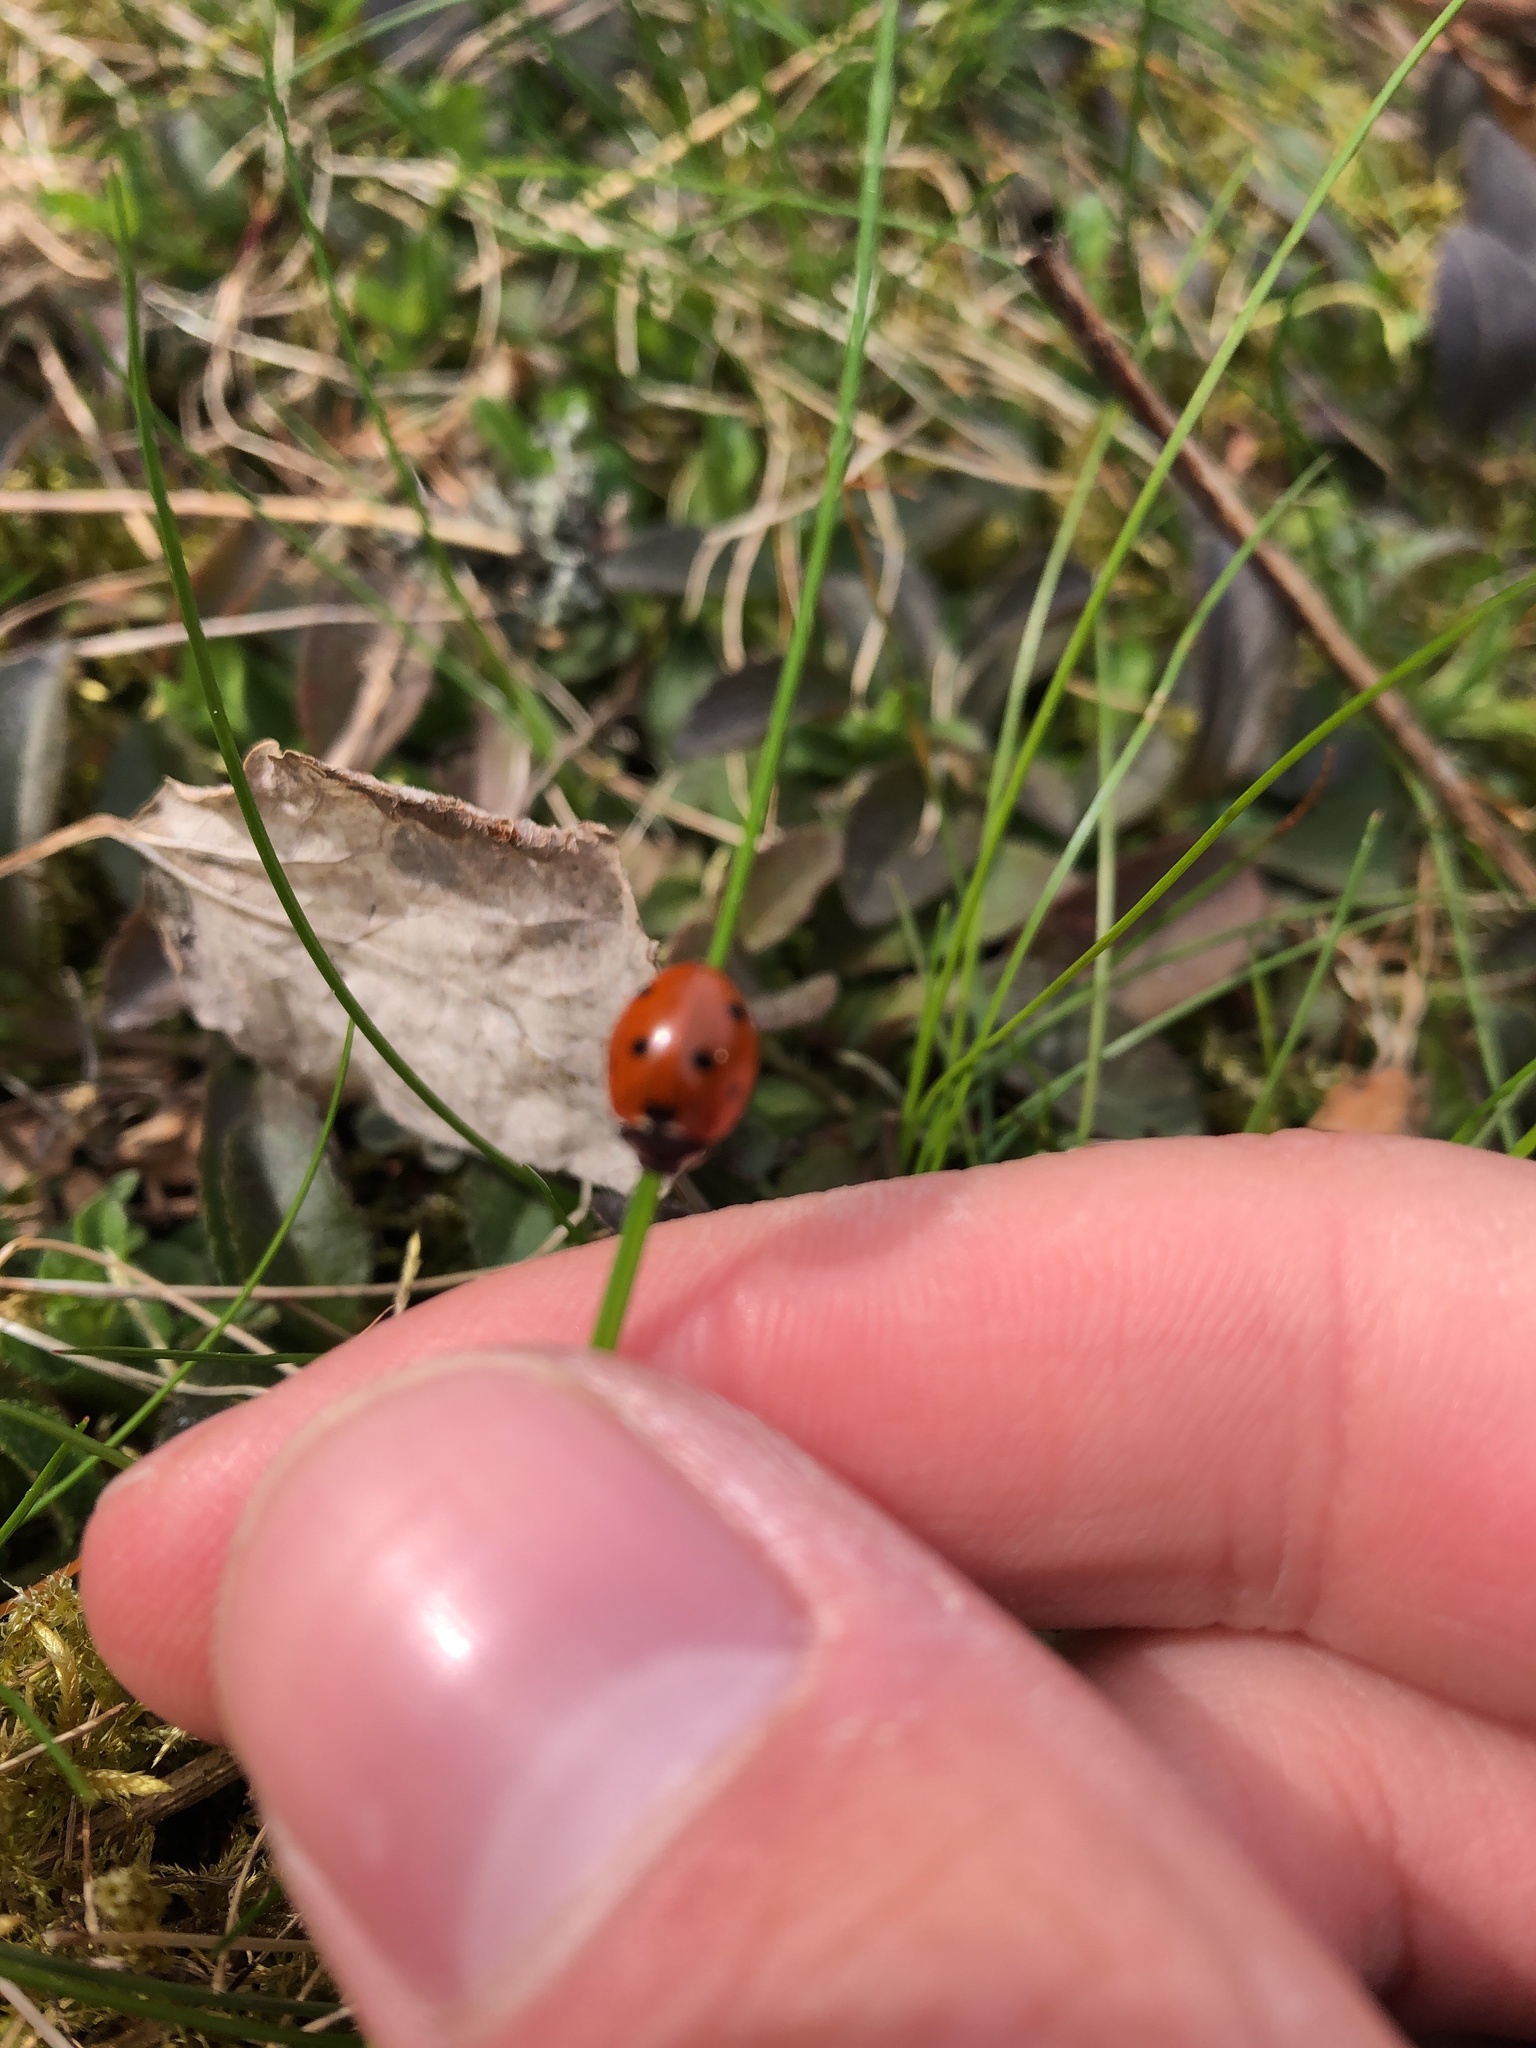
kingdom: Animalia
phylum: Arthropoda
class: Insecta
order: Coleoptera
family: Coccinellidae
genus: Coccinella
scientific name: Coccinella septempunctata
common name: Sevenspotted lady beetle
